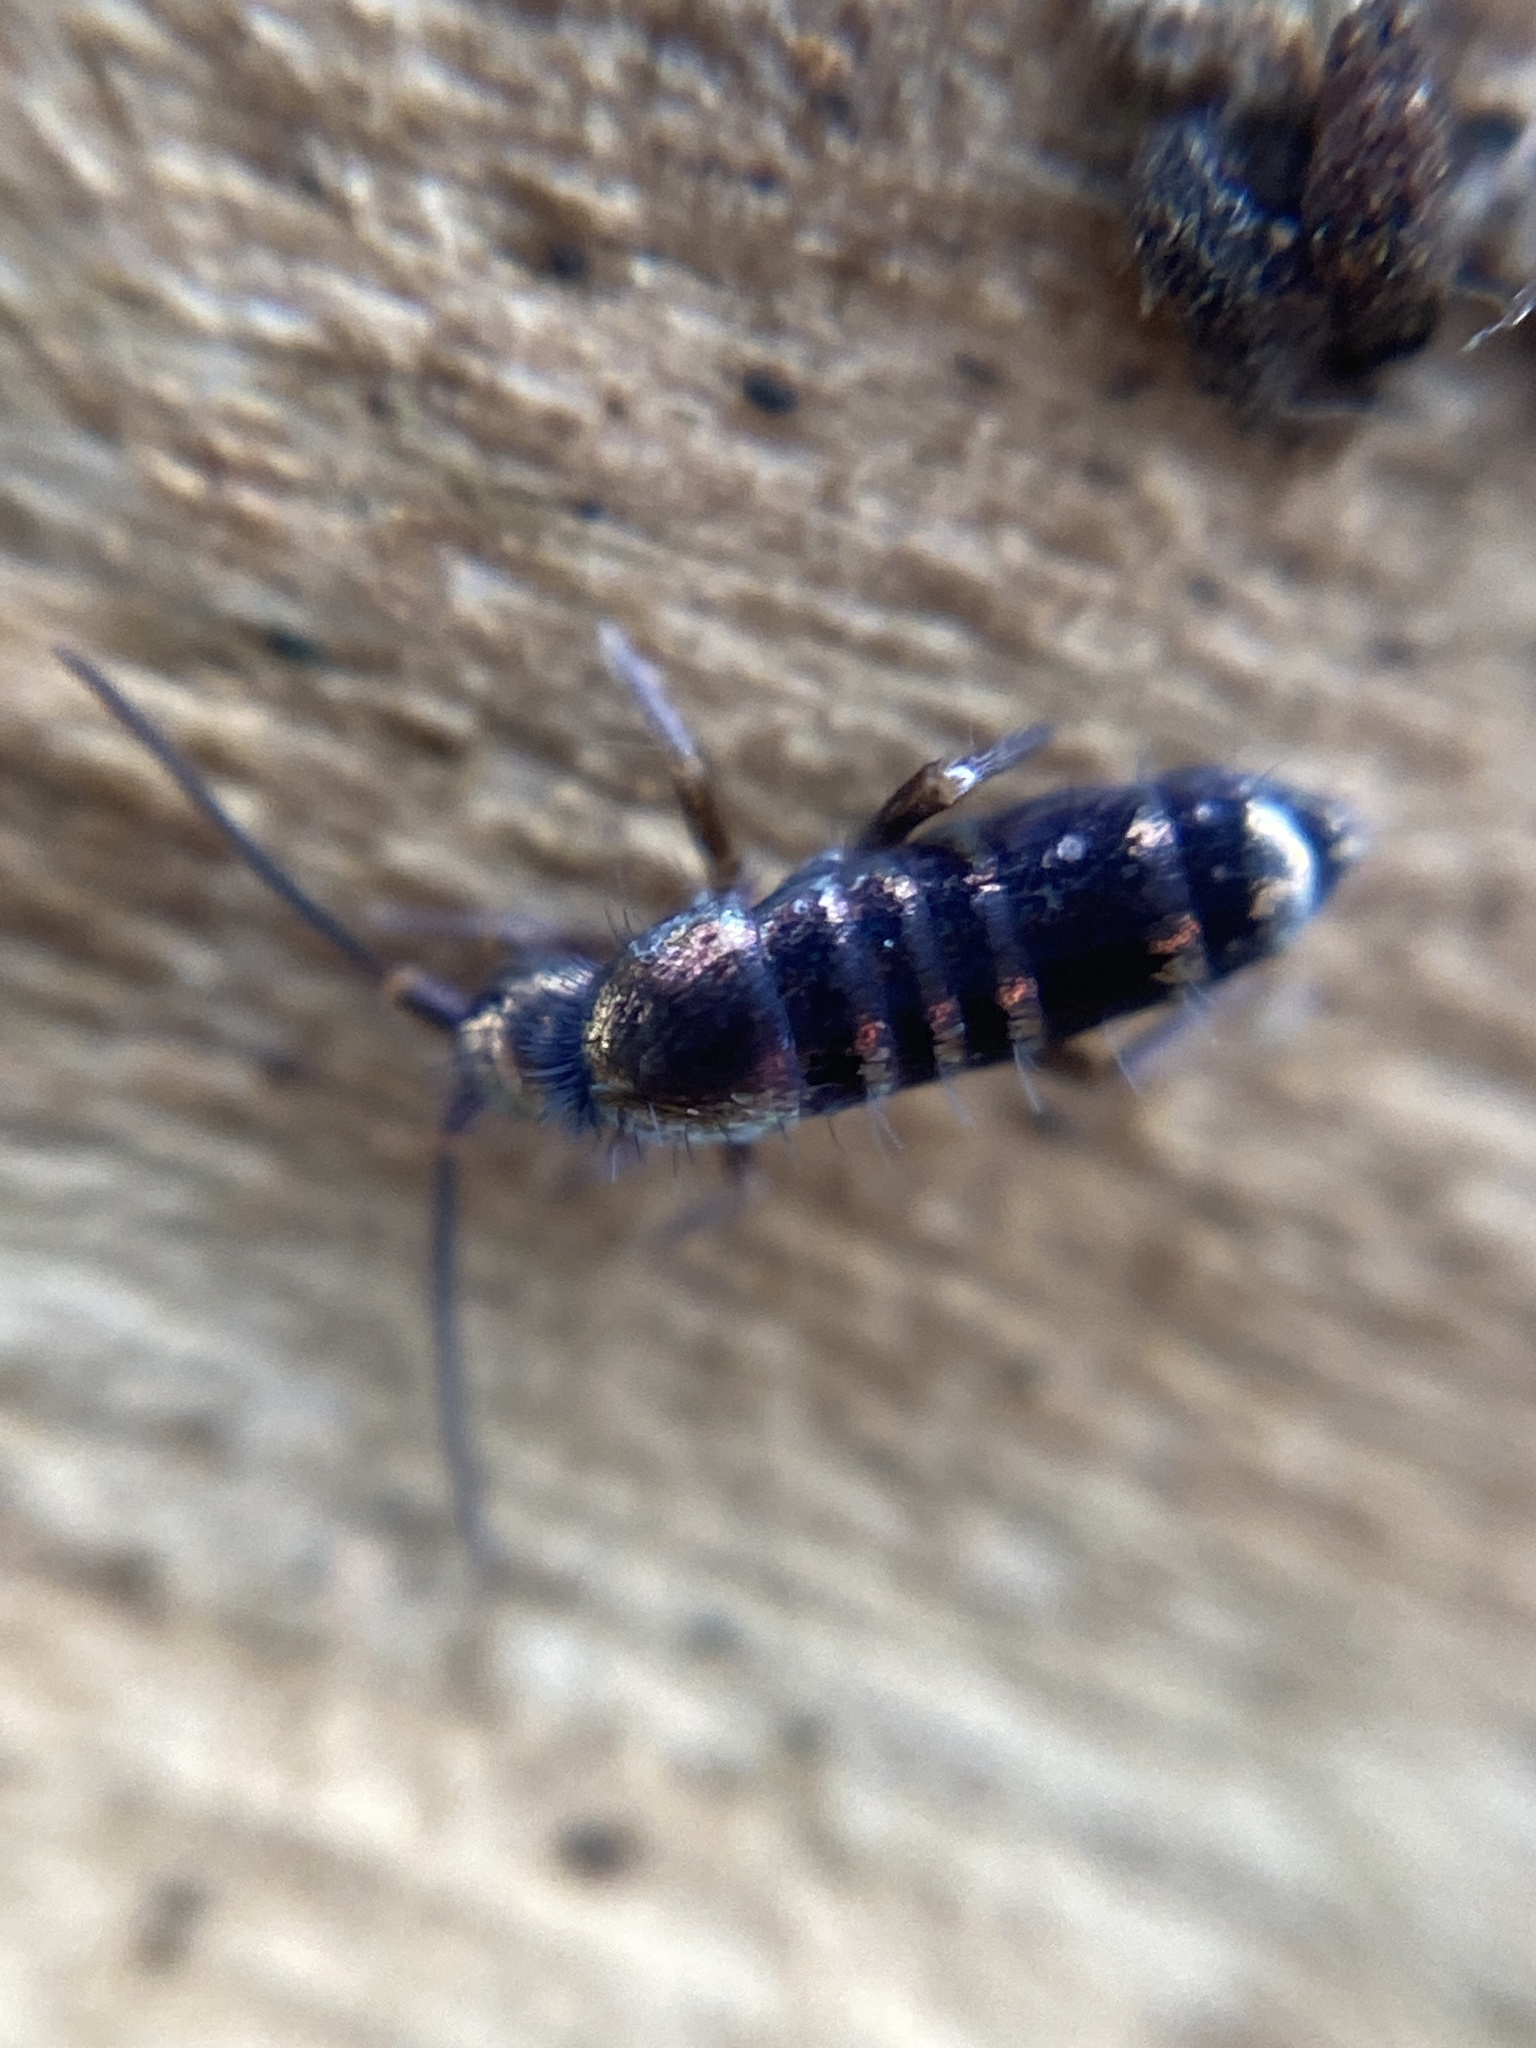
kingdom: Animalia
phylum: Arthropoda
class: Collembola
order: Entomobryomorpha
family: Tomoceridae
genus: Tomocerus
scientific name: Tomocerus vulgaris
